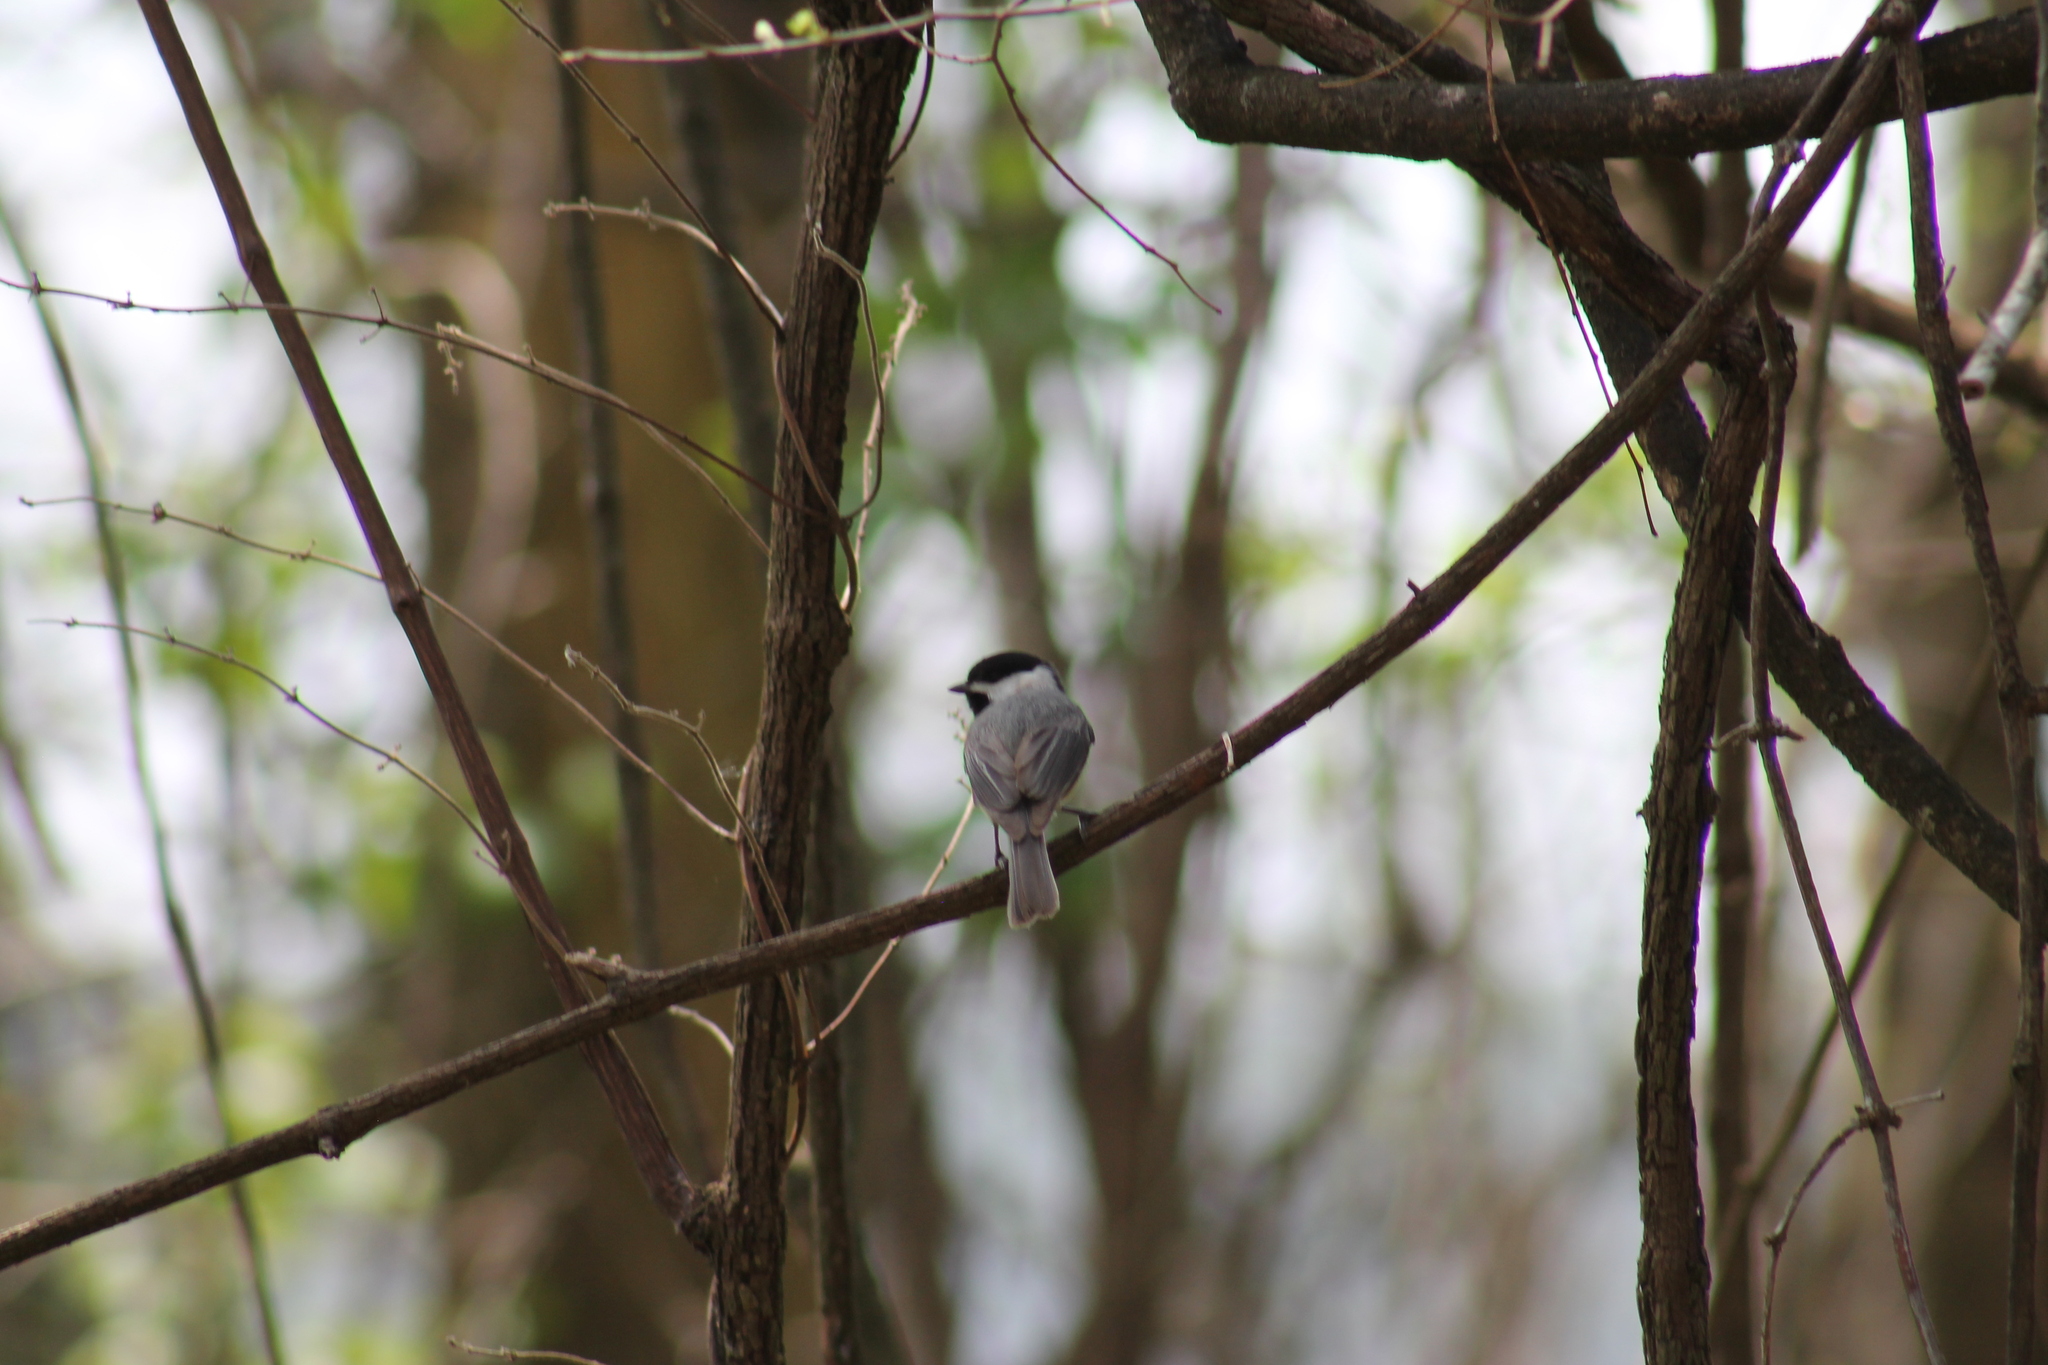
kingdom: Animalia
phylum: Chordata
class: Aves
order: Passeriformes
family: Paridae
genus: Poecile
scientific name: Poecile carolinensis
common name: Carolina chickadee
